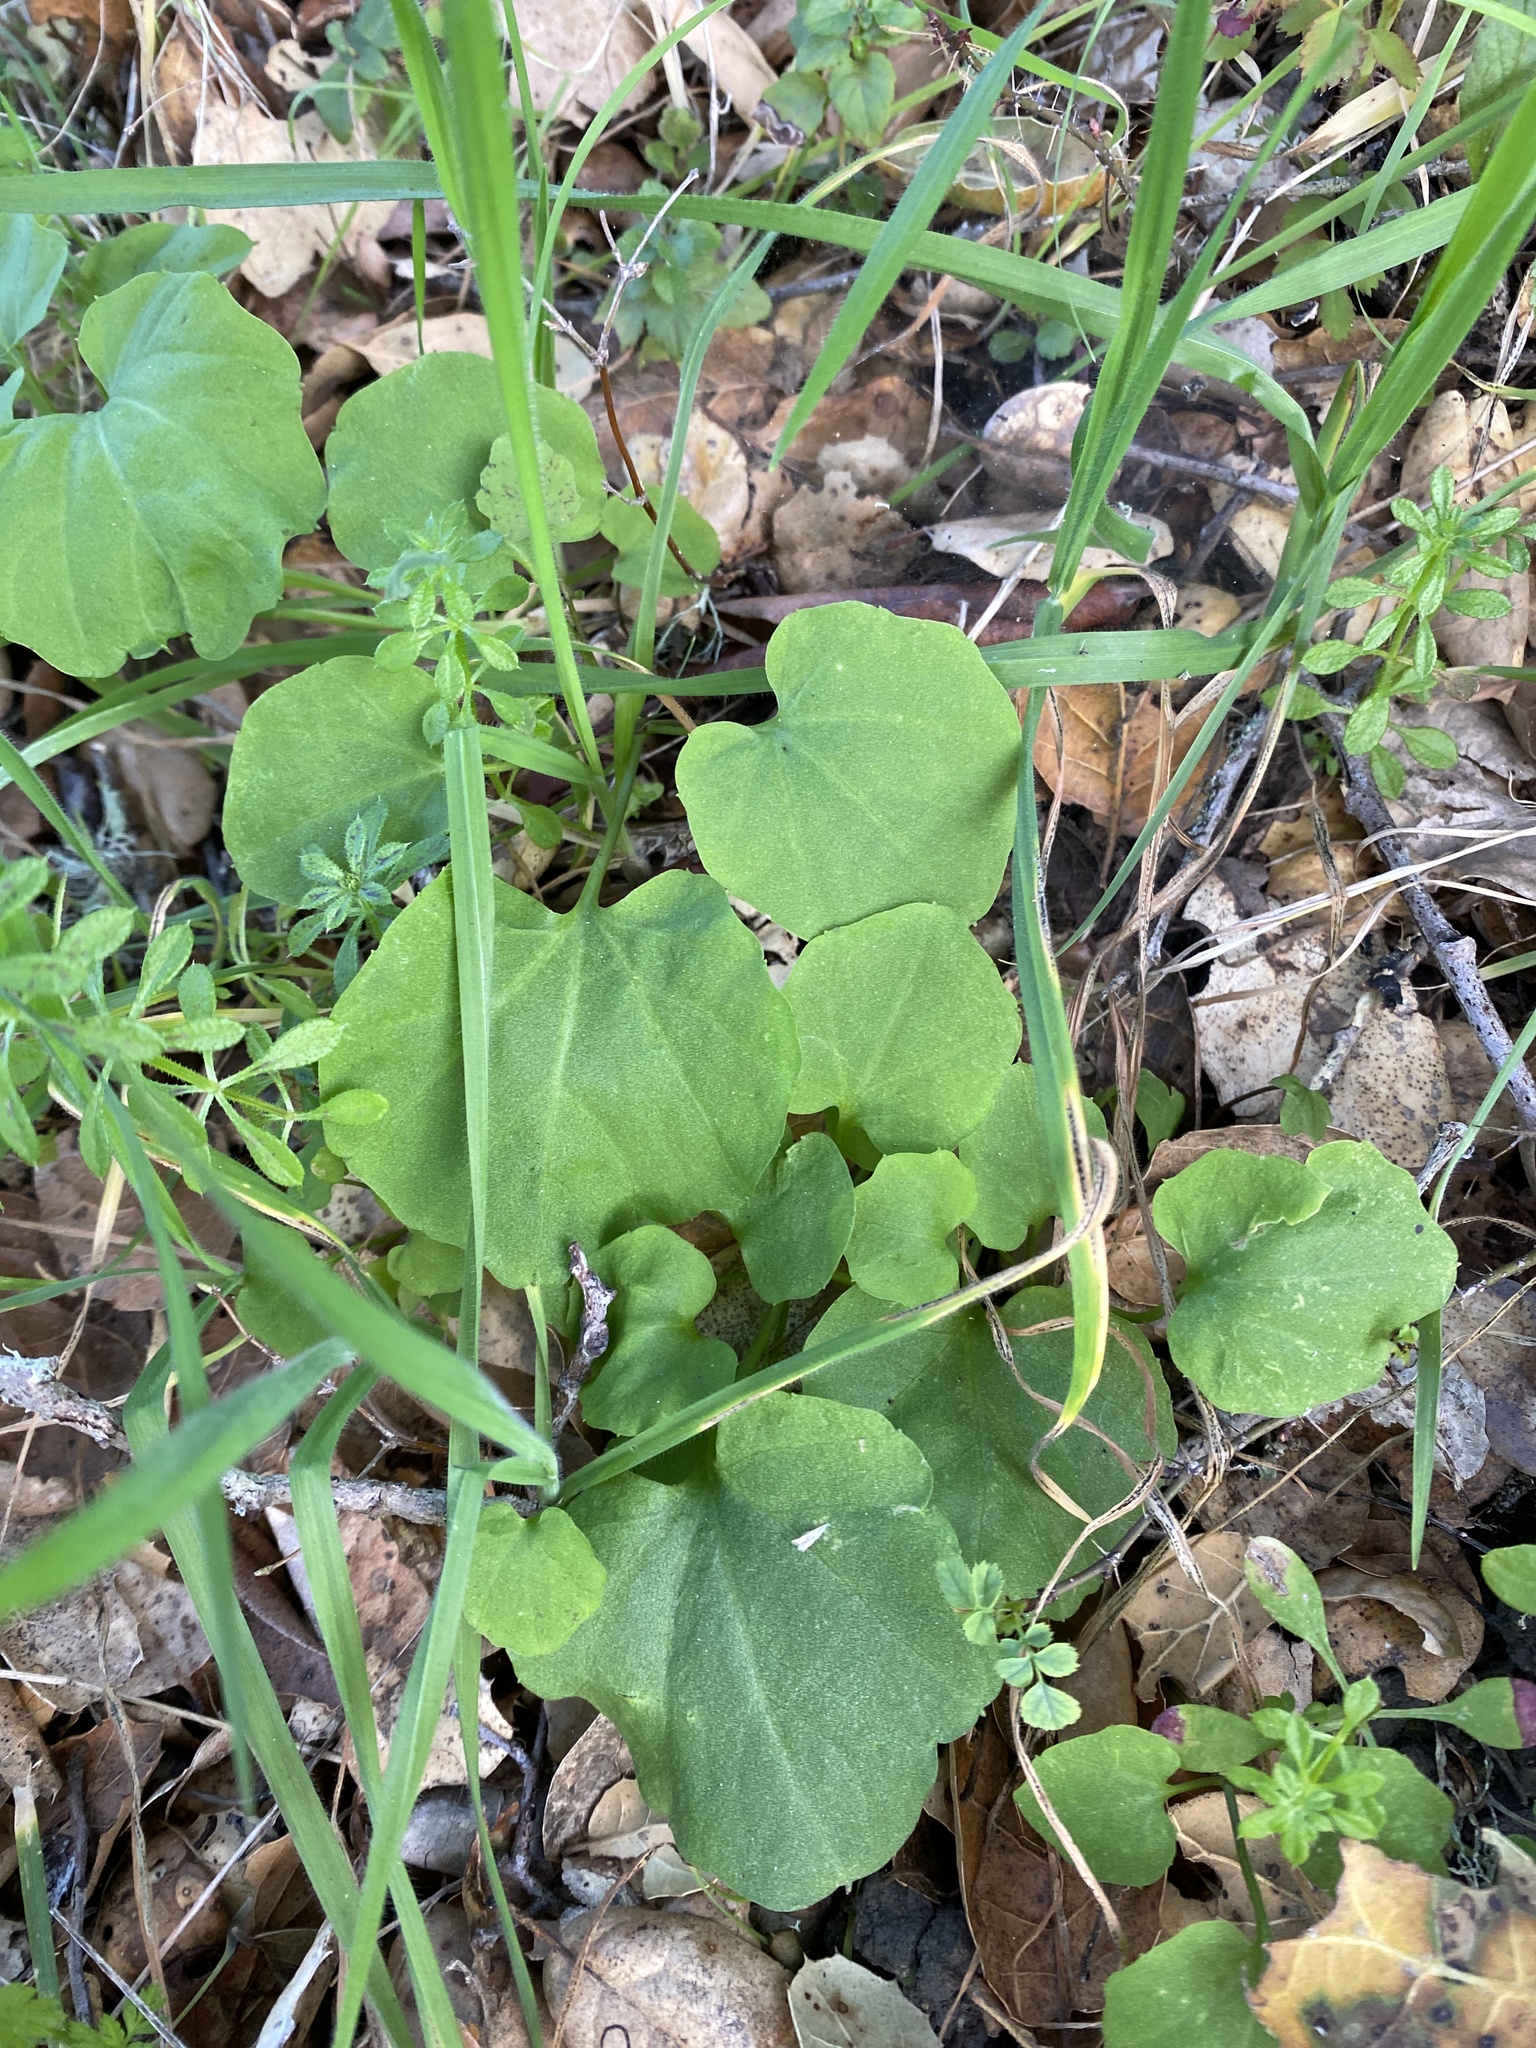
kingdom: Plantae
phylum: Tracheophyta
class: Magnoliopsida
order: Brassicales
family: Brassicaceae
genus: Cardamine
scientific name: Cardamine californica
